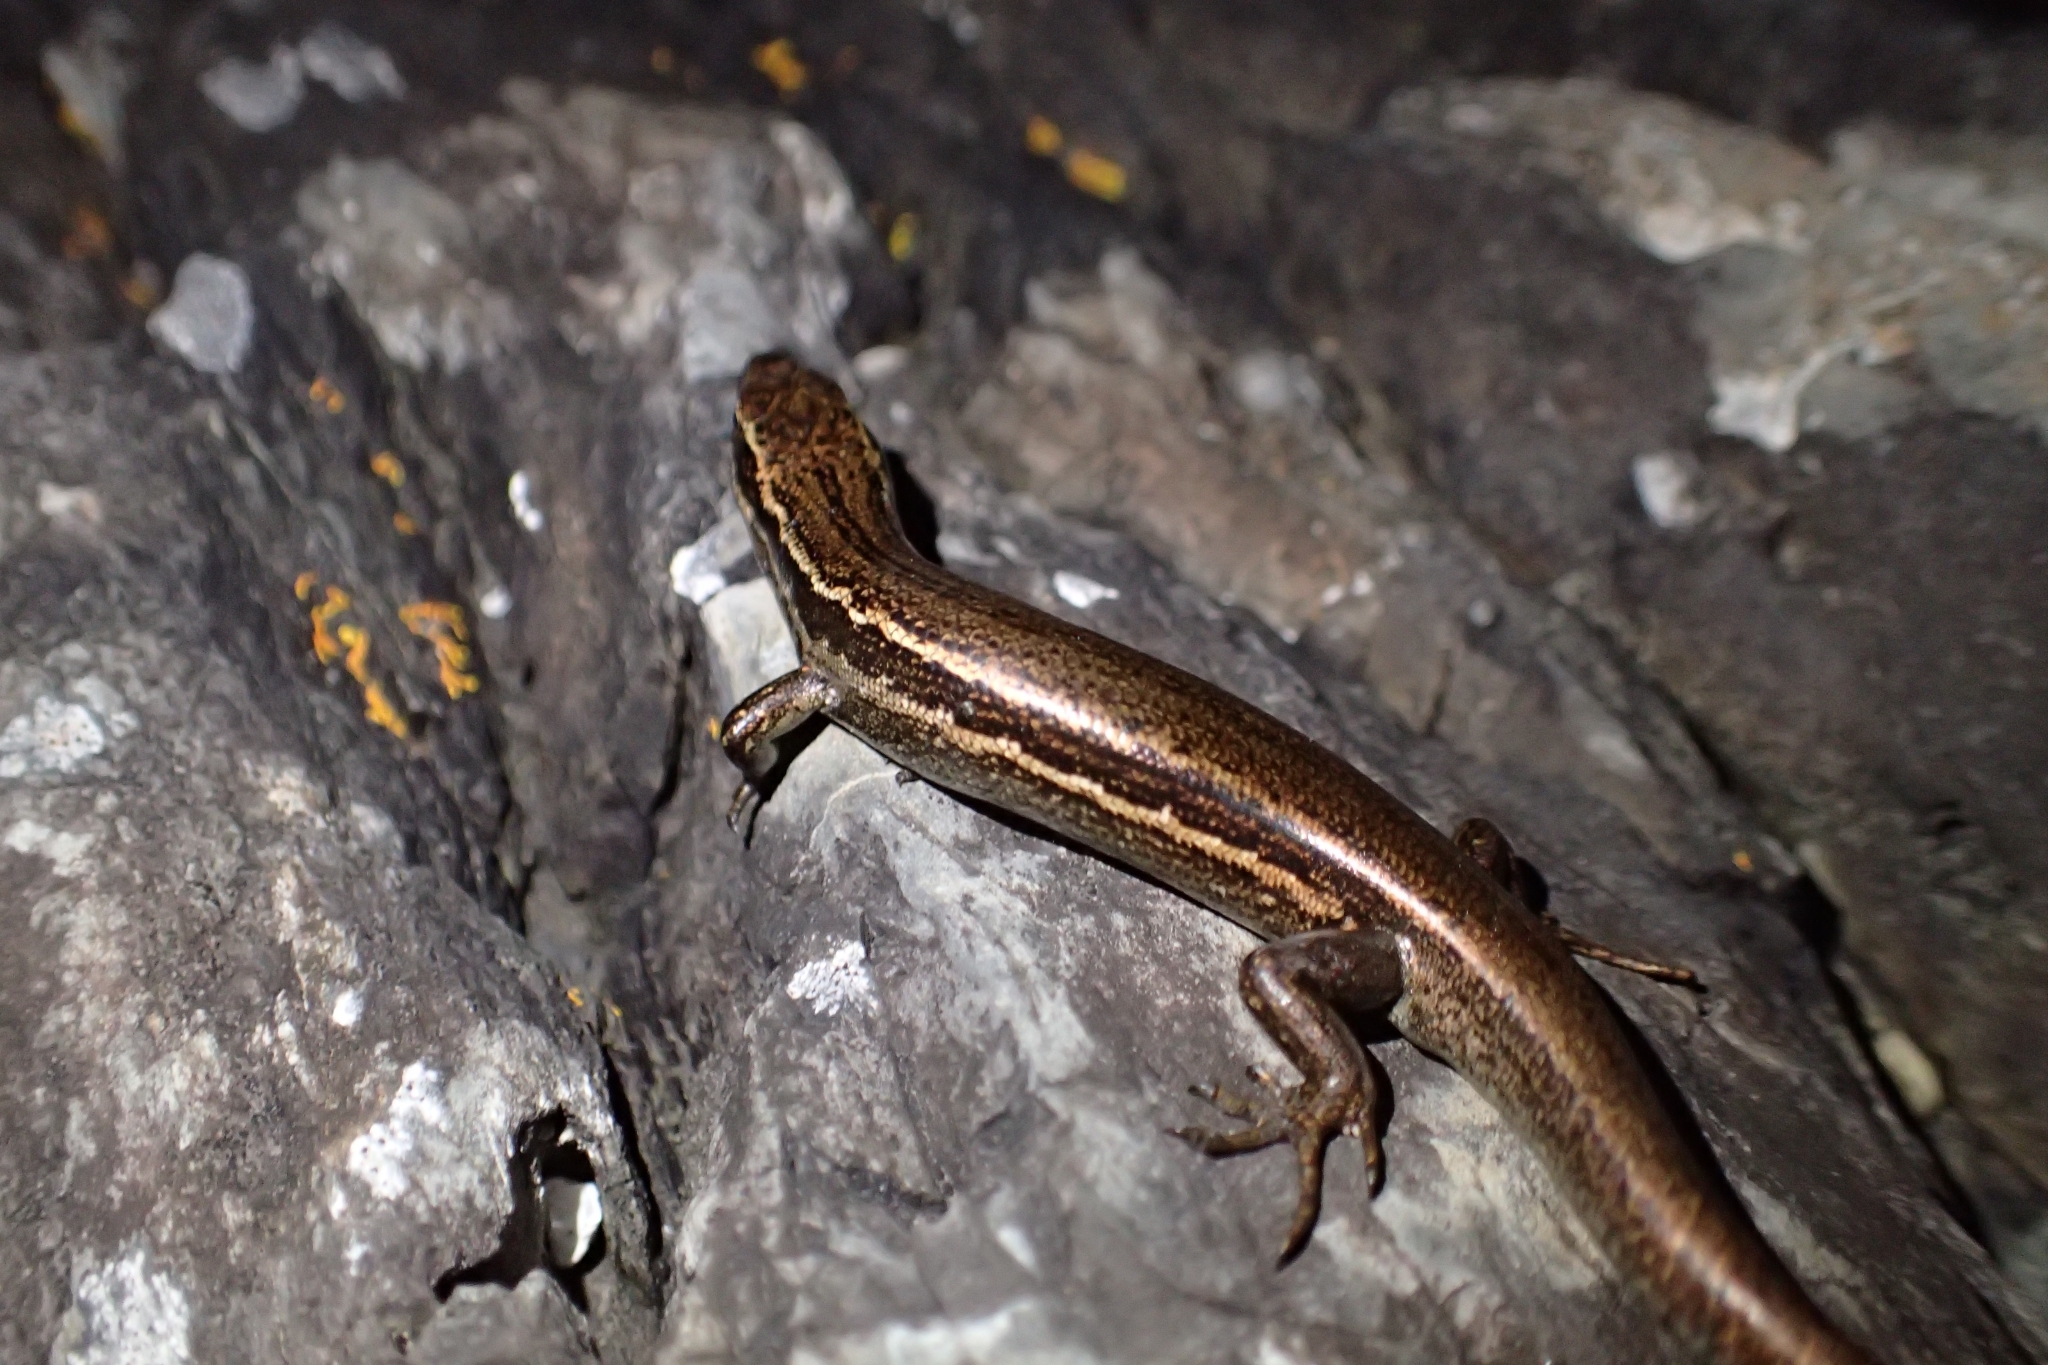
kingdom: Animalia
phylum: Chordata
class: Squamata
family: Scincidae
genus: Oligosoma
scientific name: Oligosoma moco
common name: Moco skink
